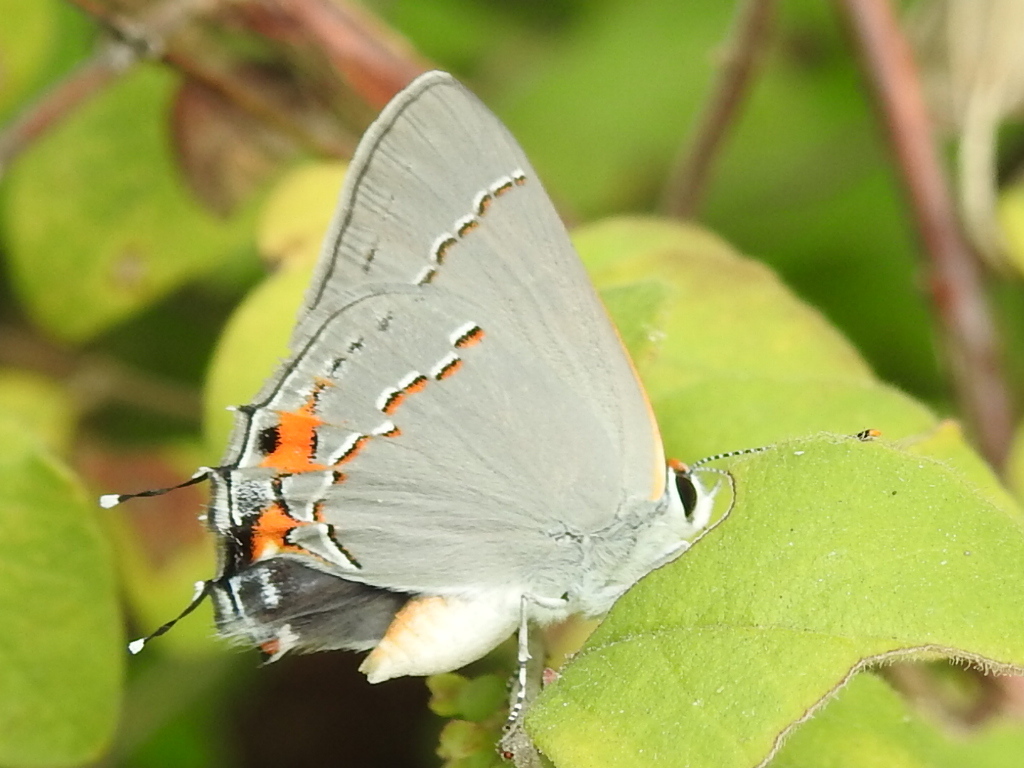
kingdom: Animalia
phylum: Arthropoda
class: Insecta
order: Lepidoptera
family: Lycaenidae
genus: Strymon
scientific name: Strymon melinus
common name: Gray hairstreak
